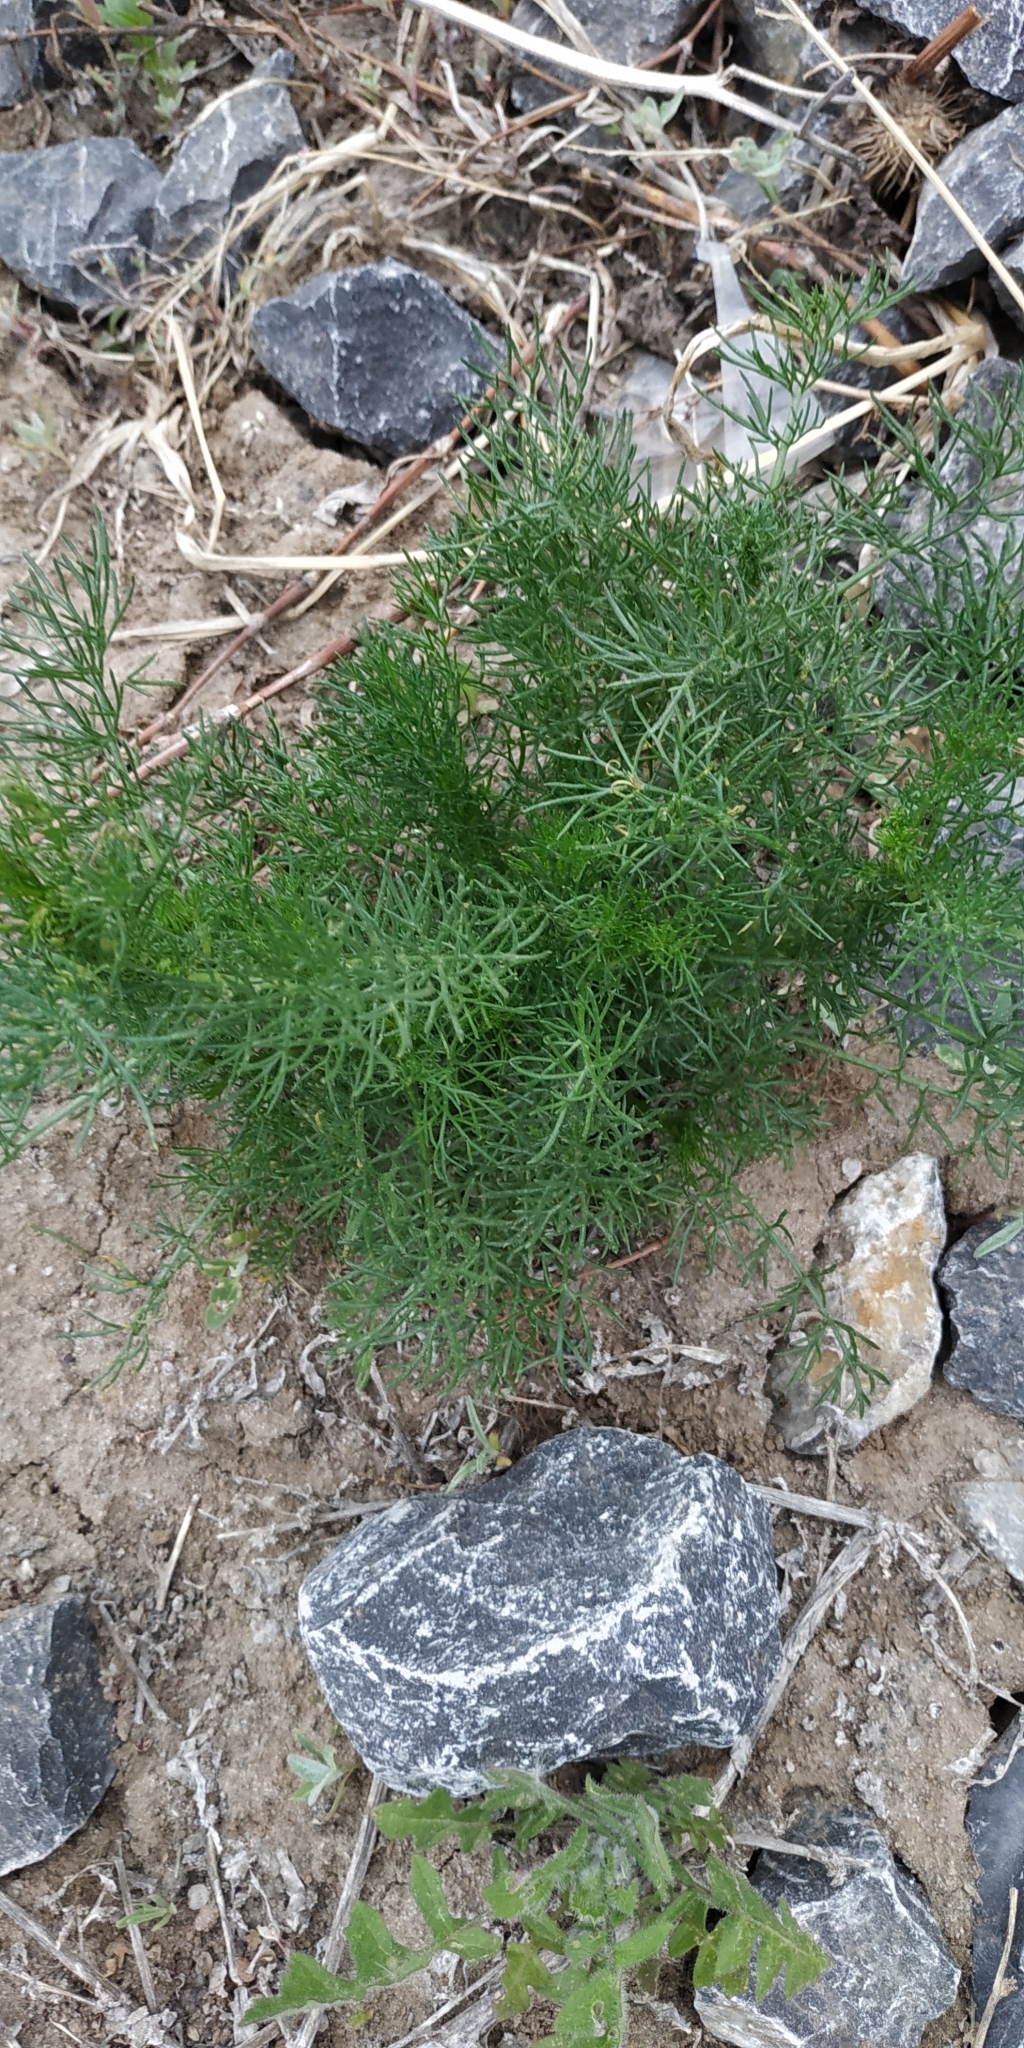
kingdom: Plantae
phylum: Tracheophyta
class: Magnoliopsida
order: Asterales
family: Asteraceae
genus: Tripleurospermum
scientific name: Tripleurospermum inodorum
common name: Scentless mayweed
